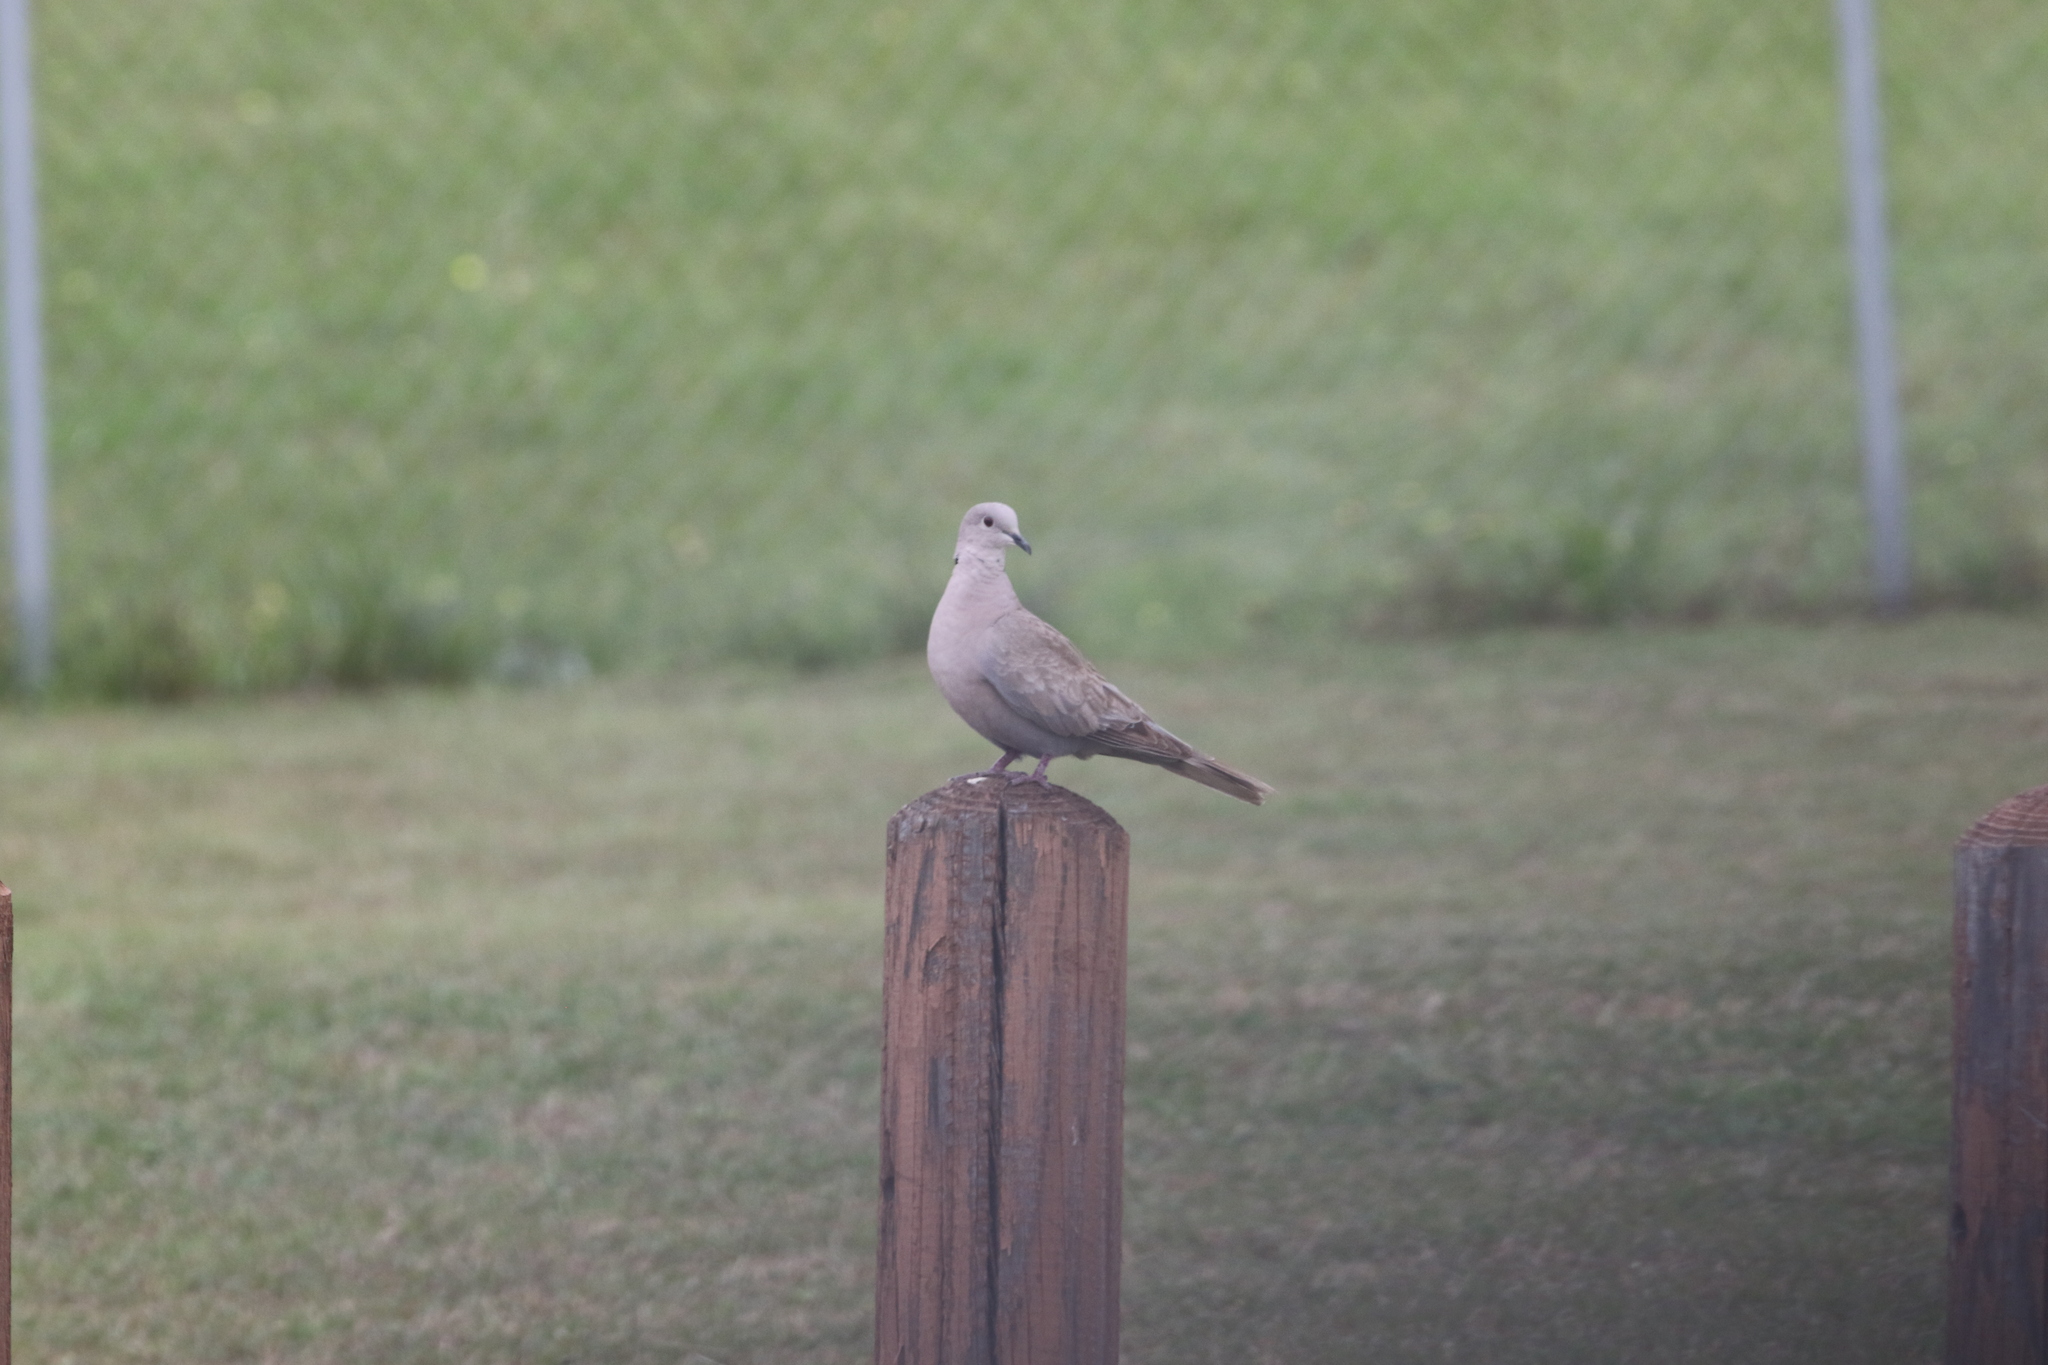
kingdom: Animalia
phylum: Chordata
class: Aves
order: Columbiformes
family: Columbidae
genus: Streptopelia
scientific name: Streptopelia decaocto
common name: Eurasian collared dove
